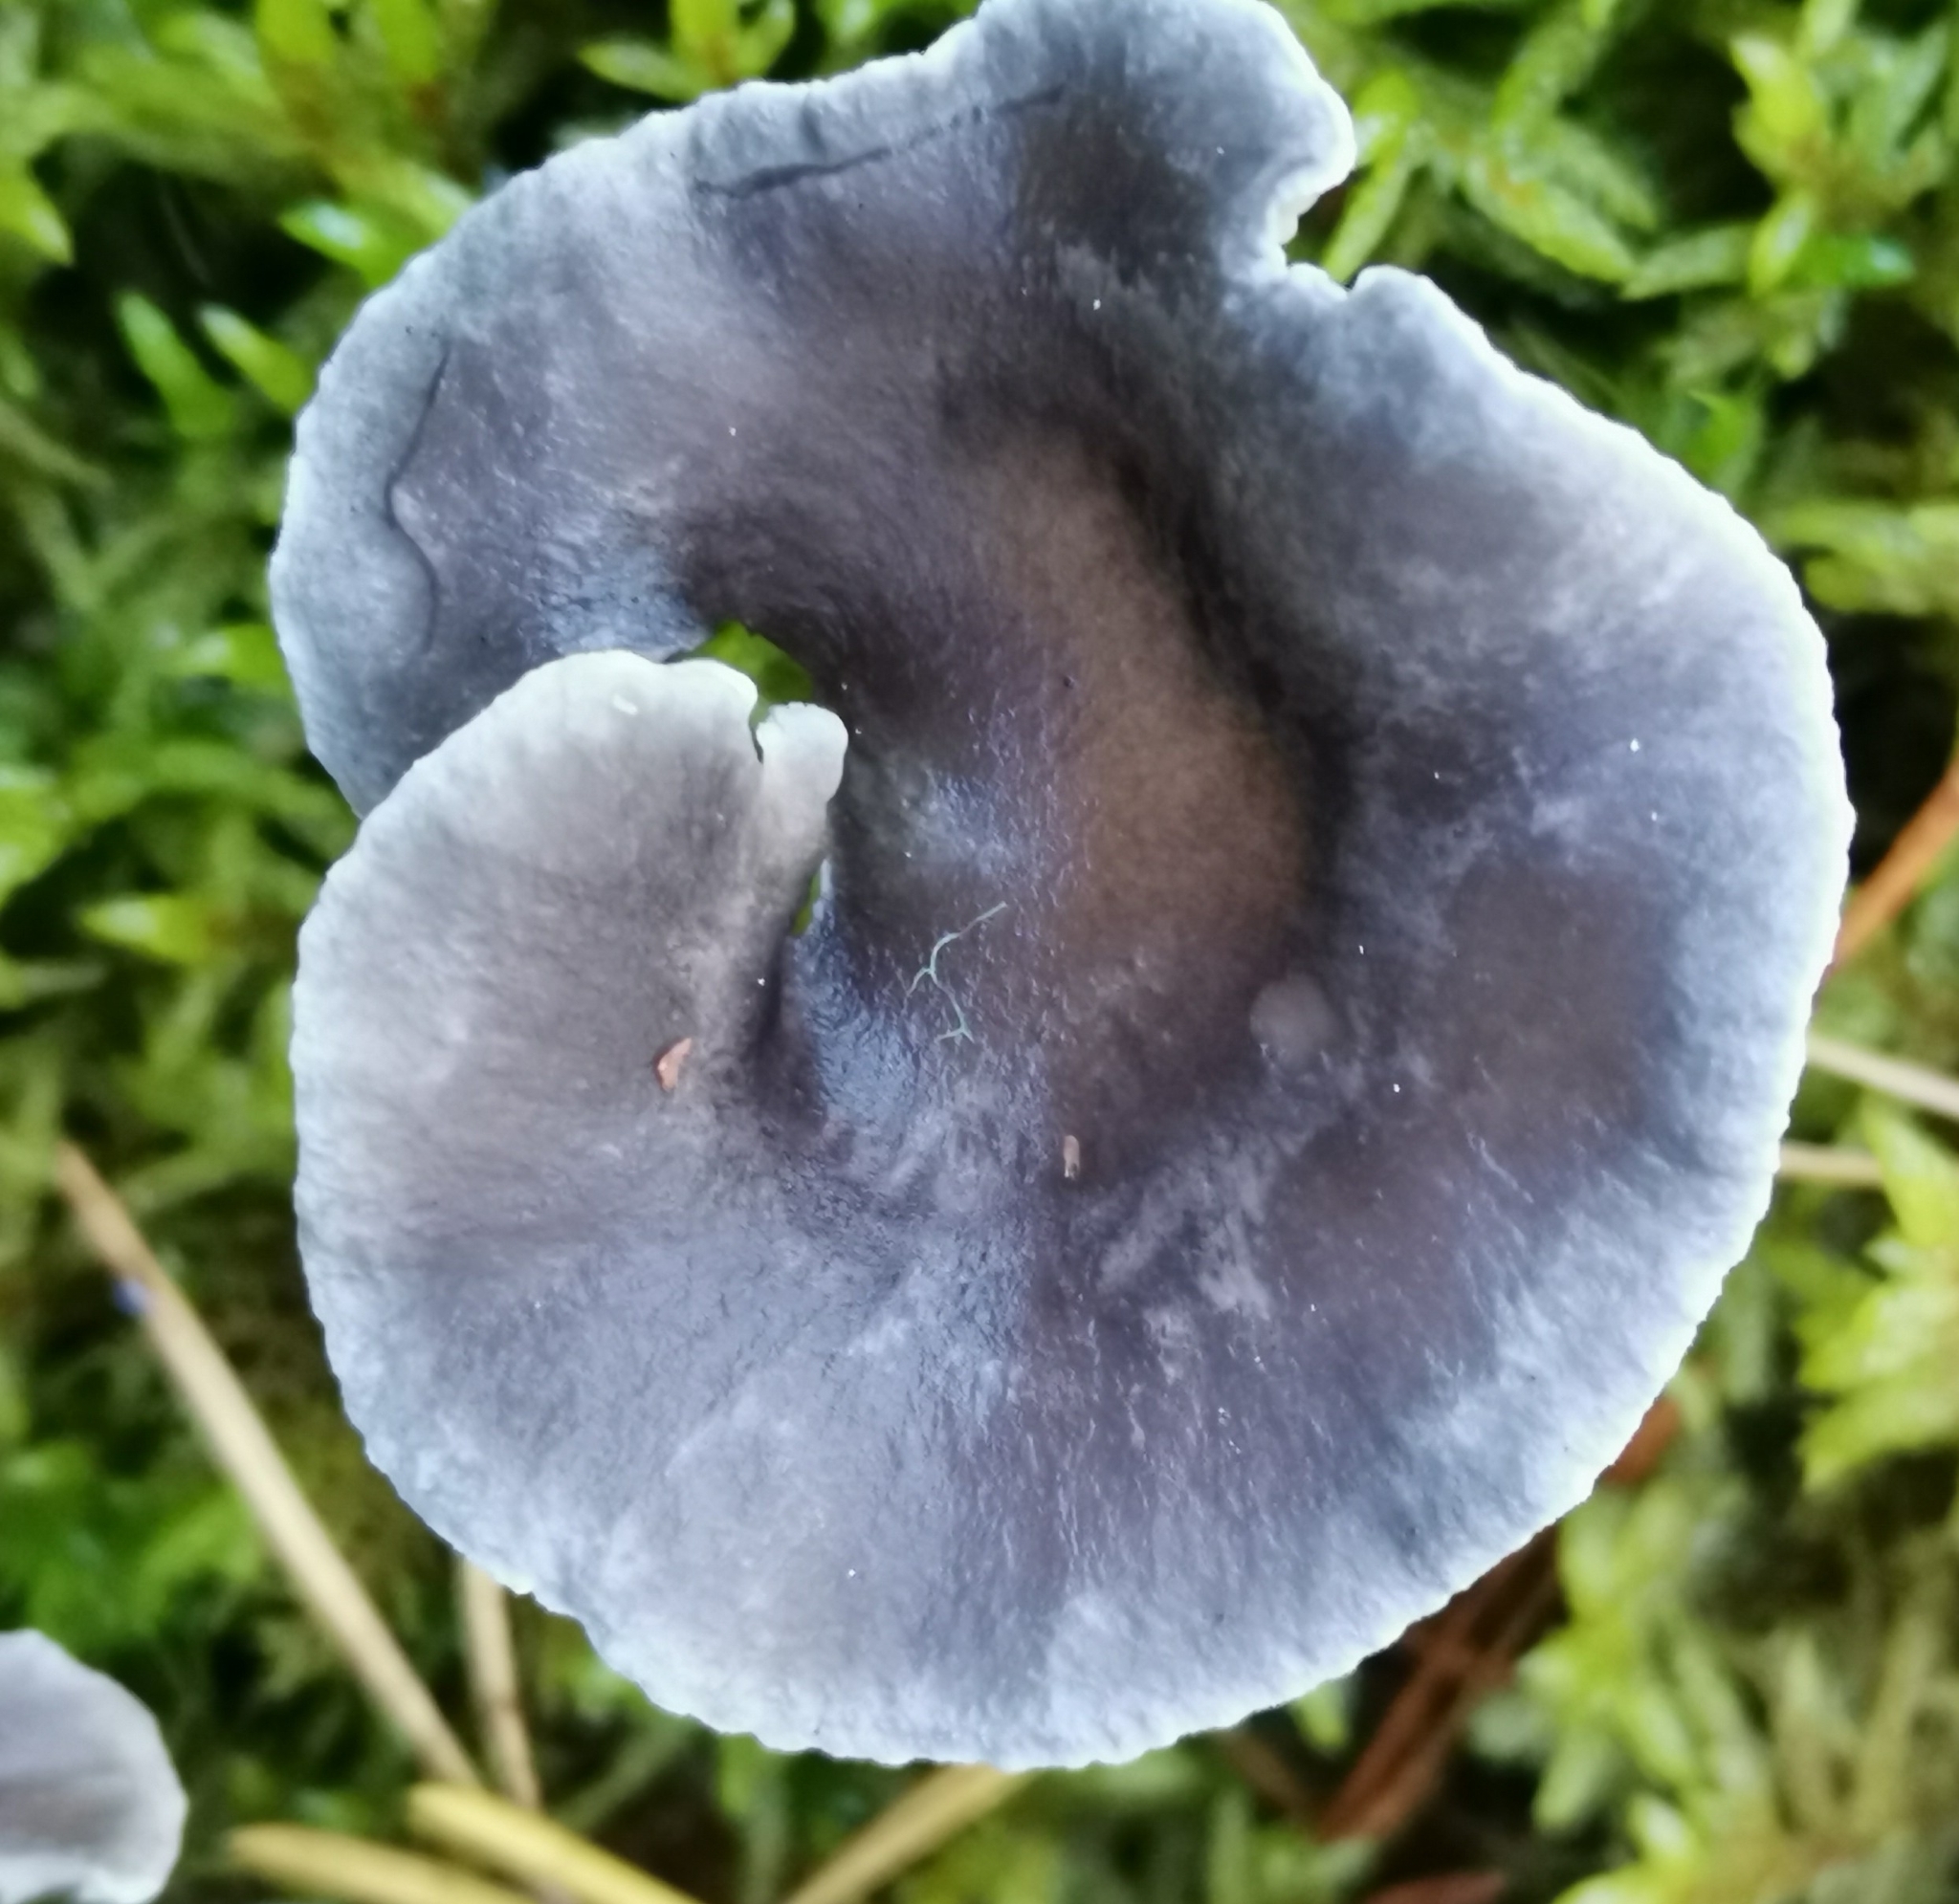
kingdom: Fungi
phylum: Basidiomycota
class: Agaricomycetes
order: Agaricales
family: Hygrophoraceae
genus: Cantharellula
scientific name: Cantharellula umbonata
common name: The humpback
